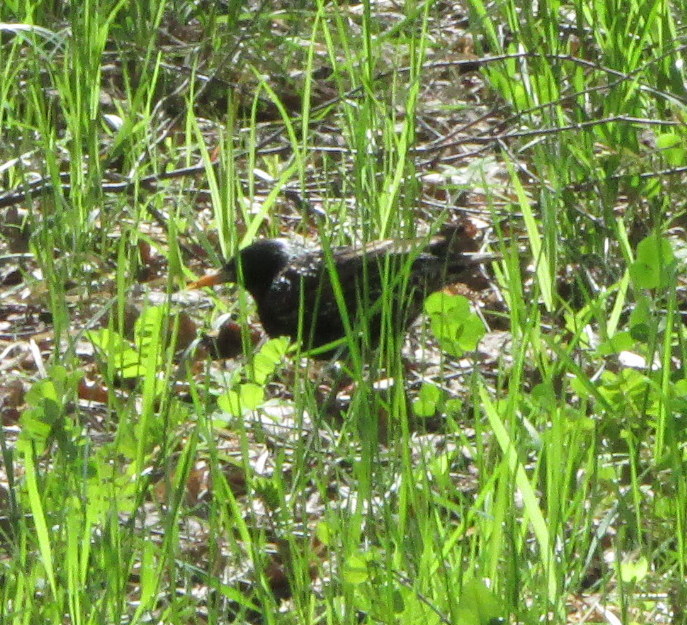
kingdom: Animalia
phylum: Chordata
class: Aves
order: Passeriformes
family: Sturnidae
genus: Sturnus
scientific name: Sturnus vulgaris
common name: Common starling
